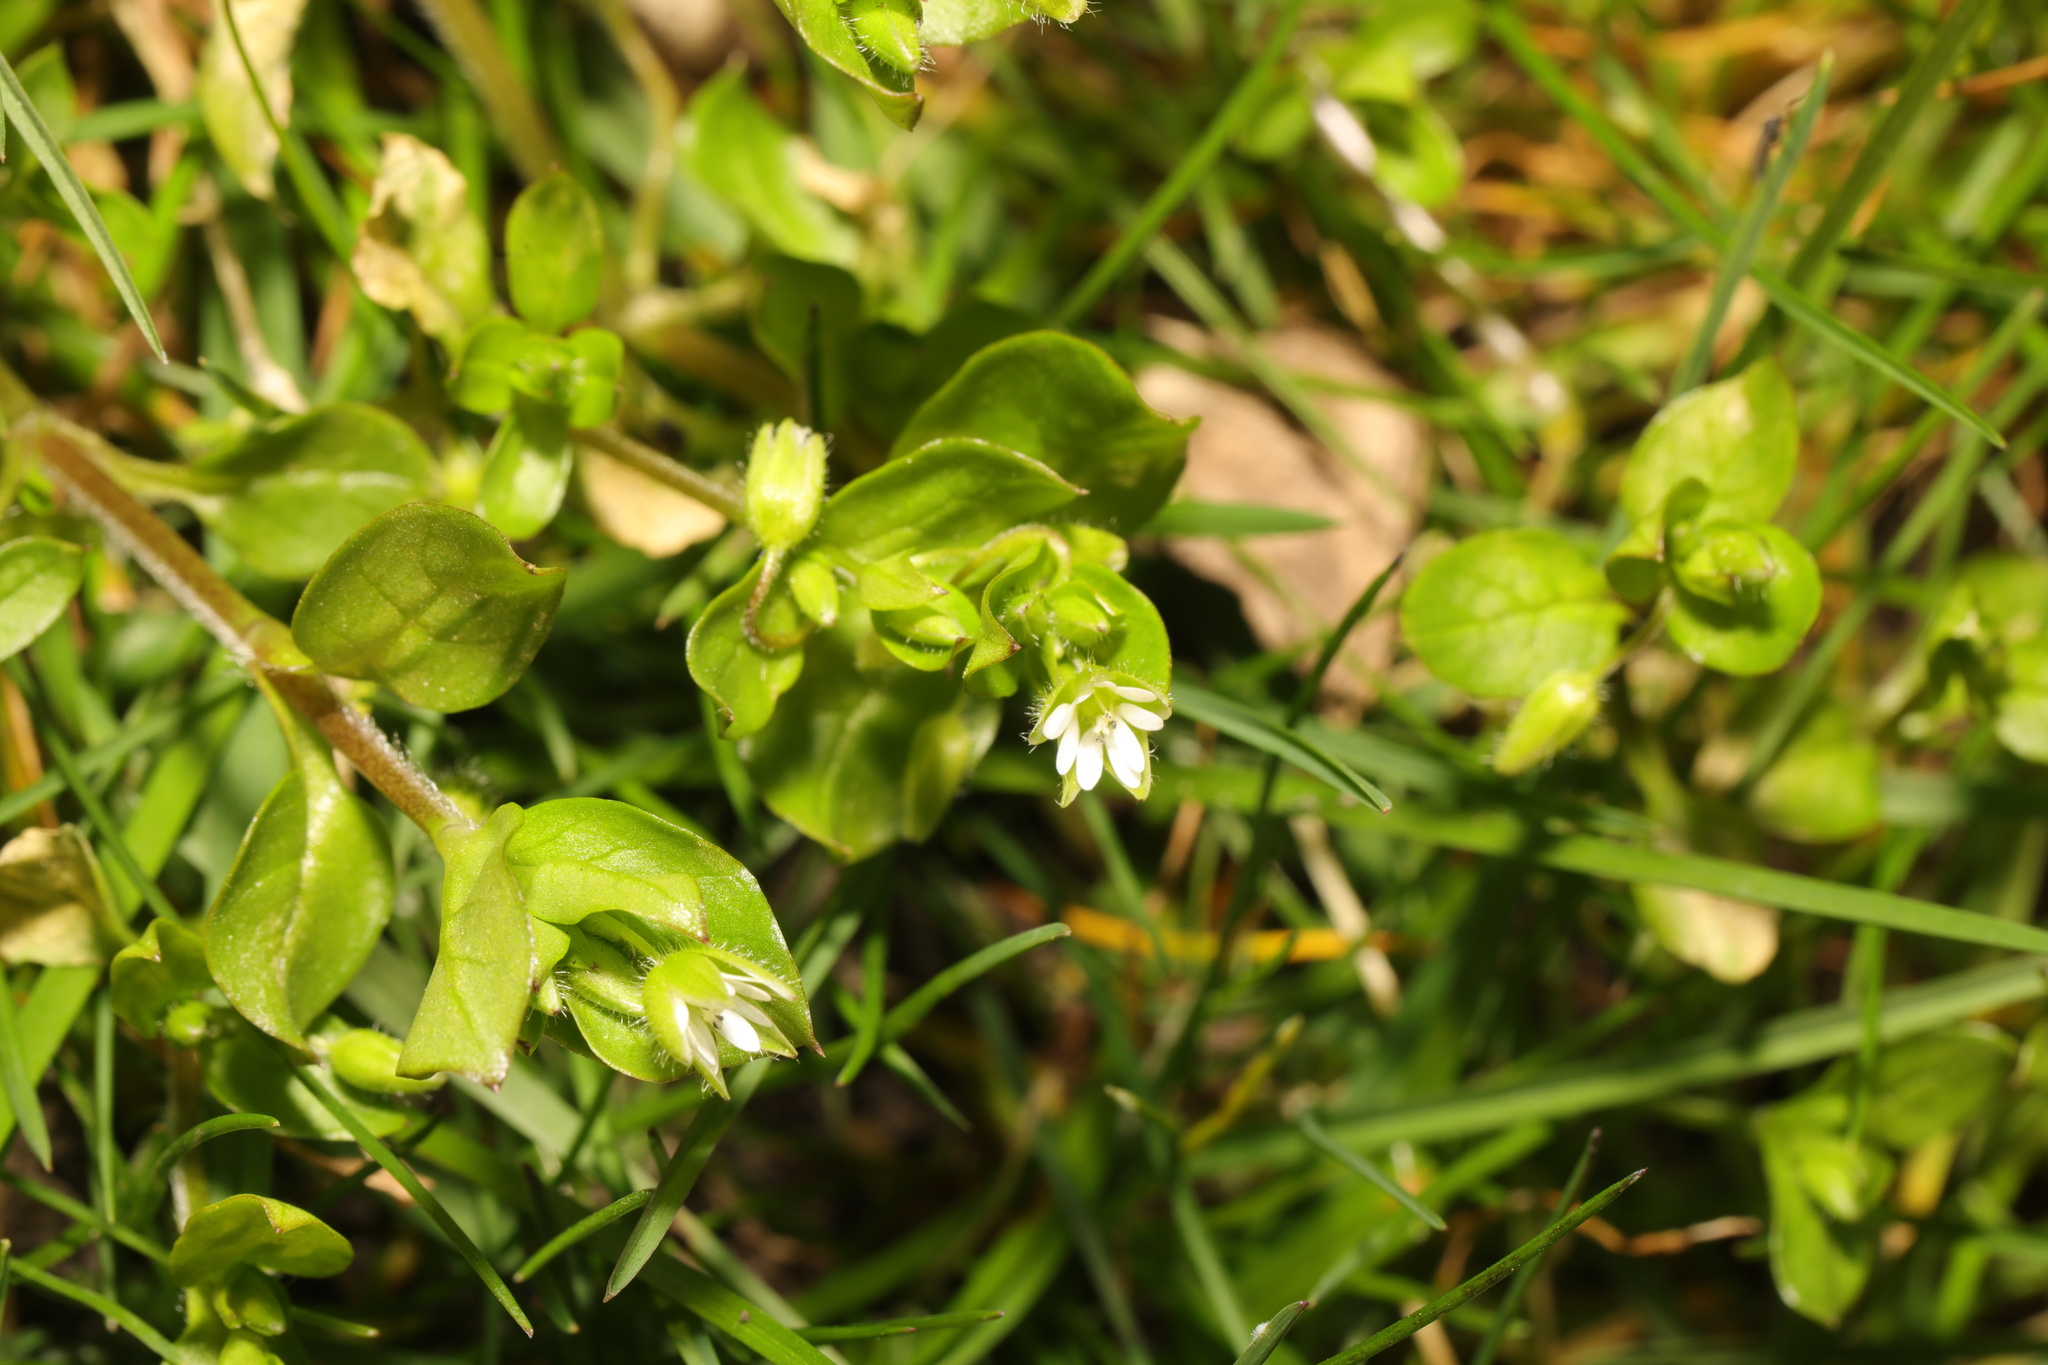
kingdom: Plantae
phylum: Tracheophyta
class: Magnoliopsida
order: Caryophyllales
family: Caryophyllaceae
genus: Stellaria
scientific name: Stellaria media
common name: Common chickweed
